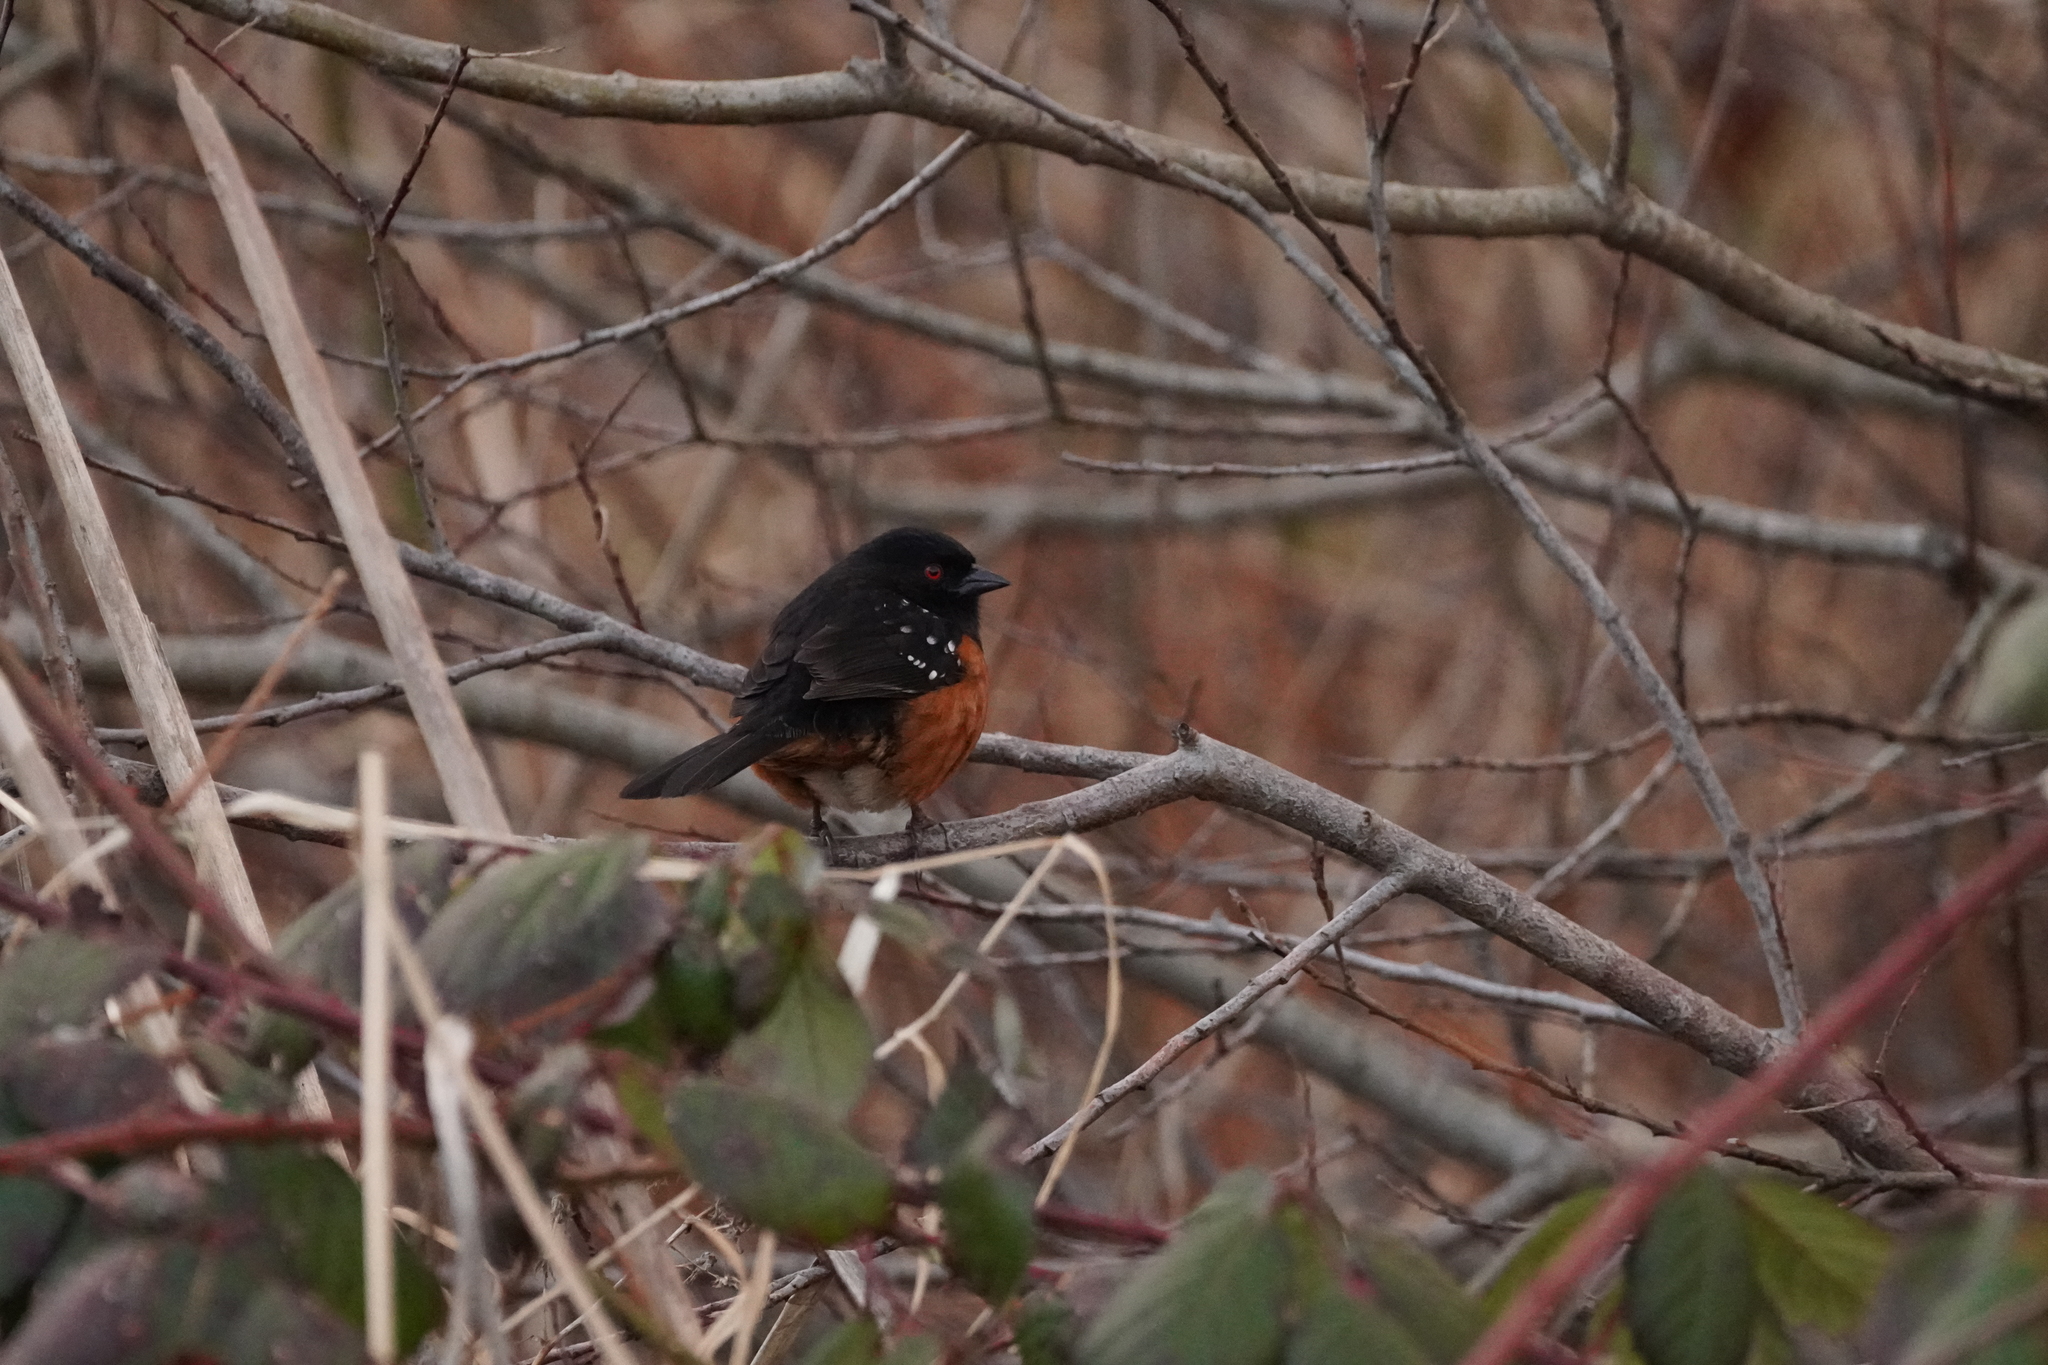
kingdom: Animalia
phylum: Chordata
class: Aves
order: Passeriformes
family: Passerellidae
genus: Pipilo
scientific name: Pipilo maculatus
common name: Spotted towhee
